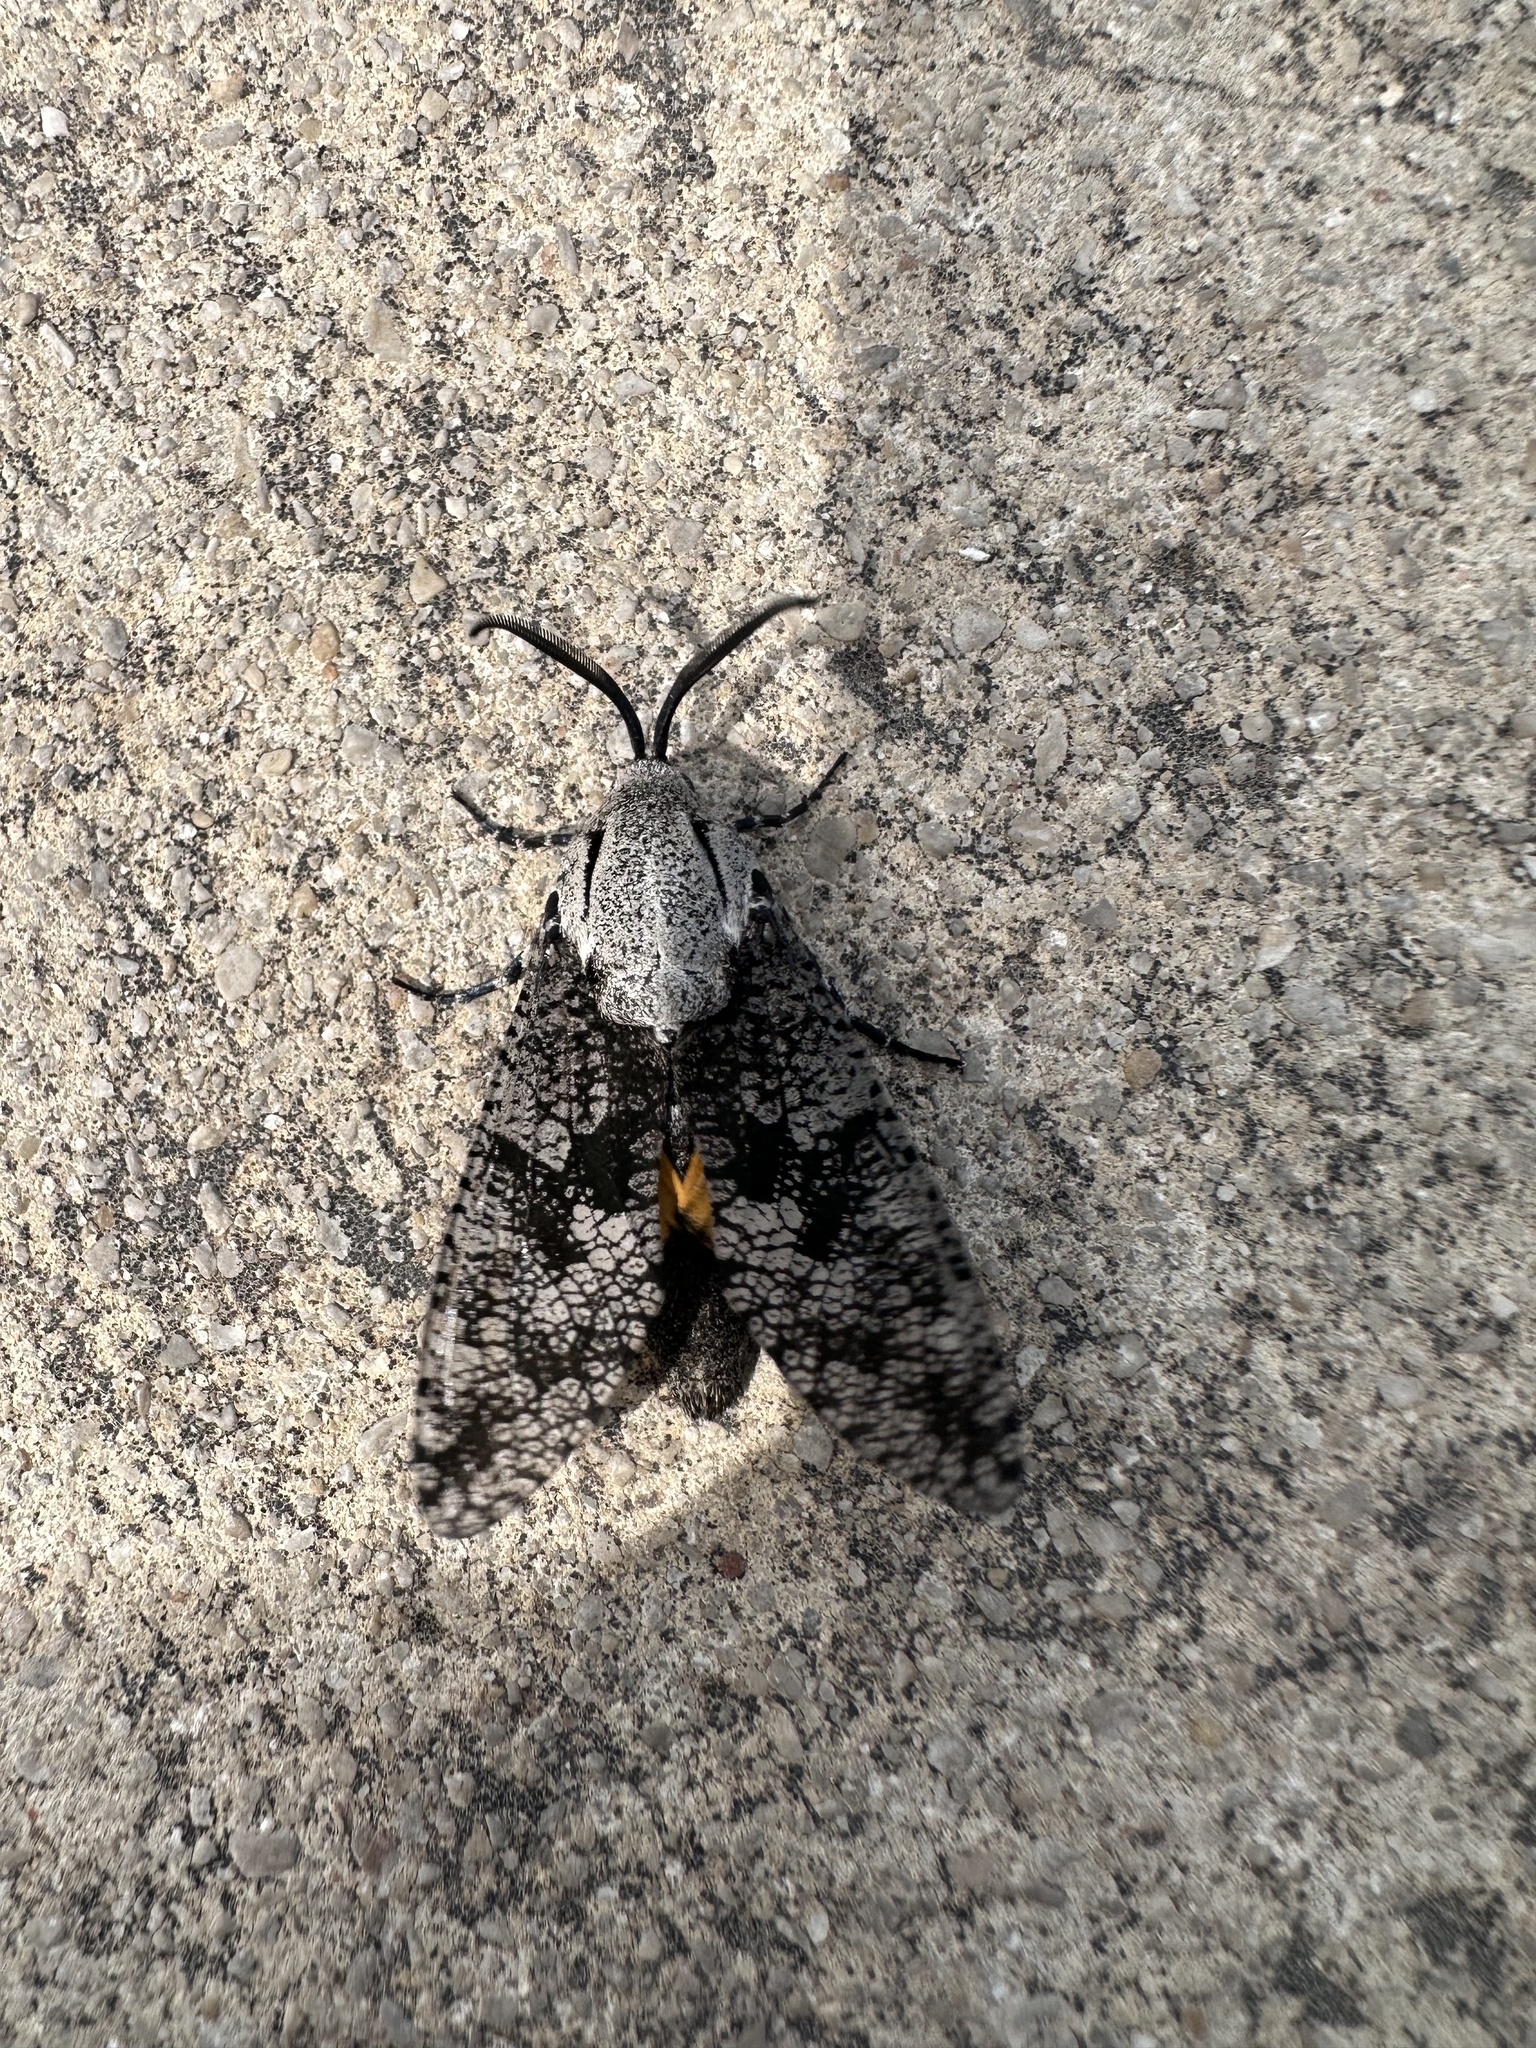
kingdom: Animalia
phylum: Arthropoda
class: Insecta
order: Lepidoptera
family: Cossidae
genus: Prionoxystus
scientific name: Prionoxystus robiniae
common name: Carpenterworm
